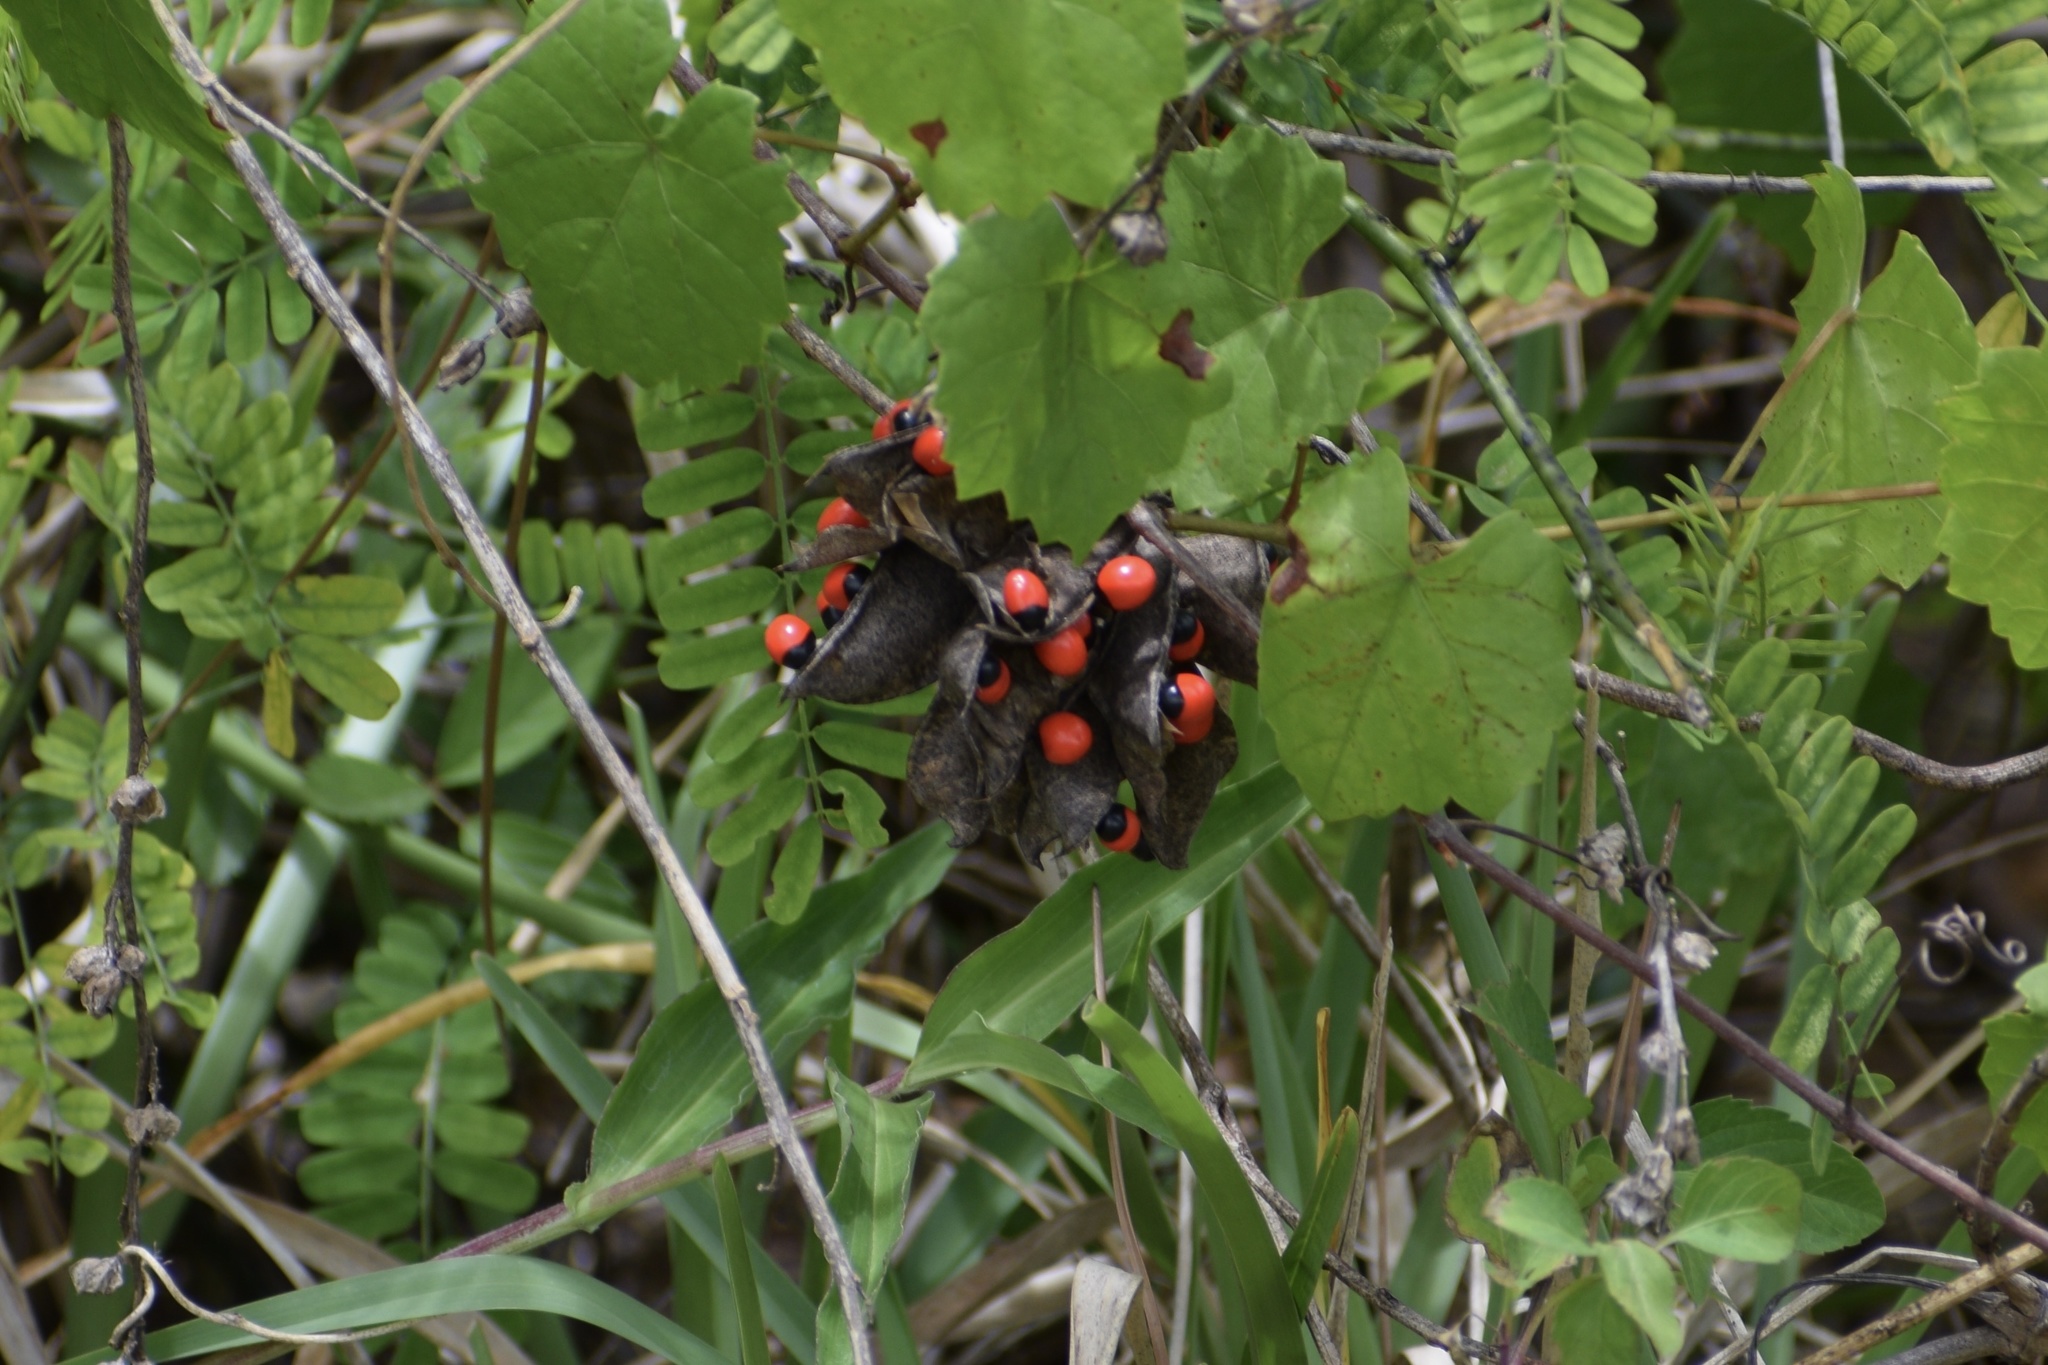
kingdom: Plantae
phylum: Tracheophyta
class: Magnoliopsida
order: Fabales
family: Fabaceae
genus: Abrus
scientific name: Abrus precatorius
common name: Rosarypea
